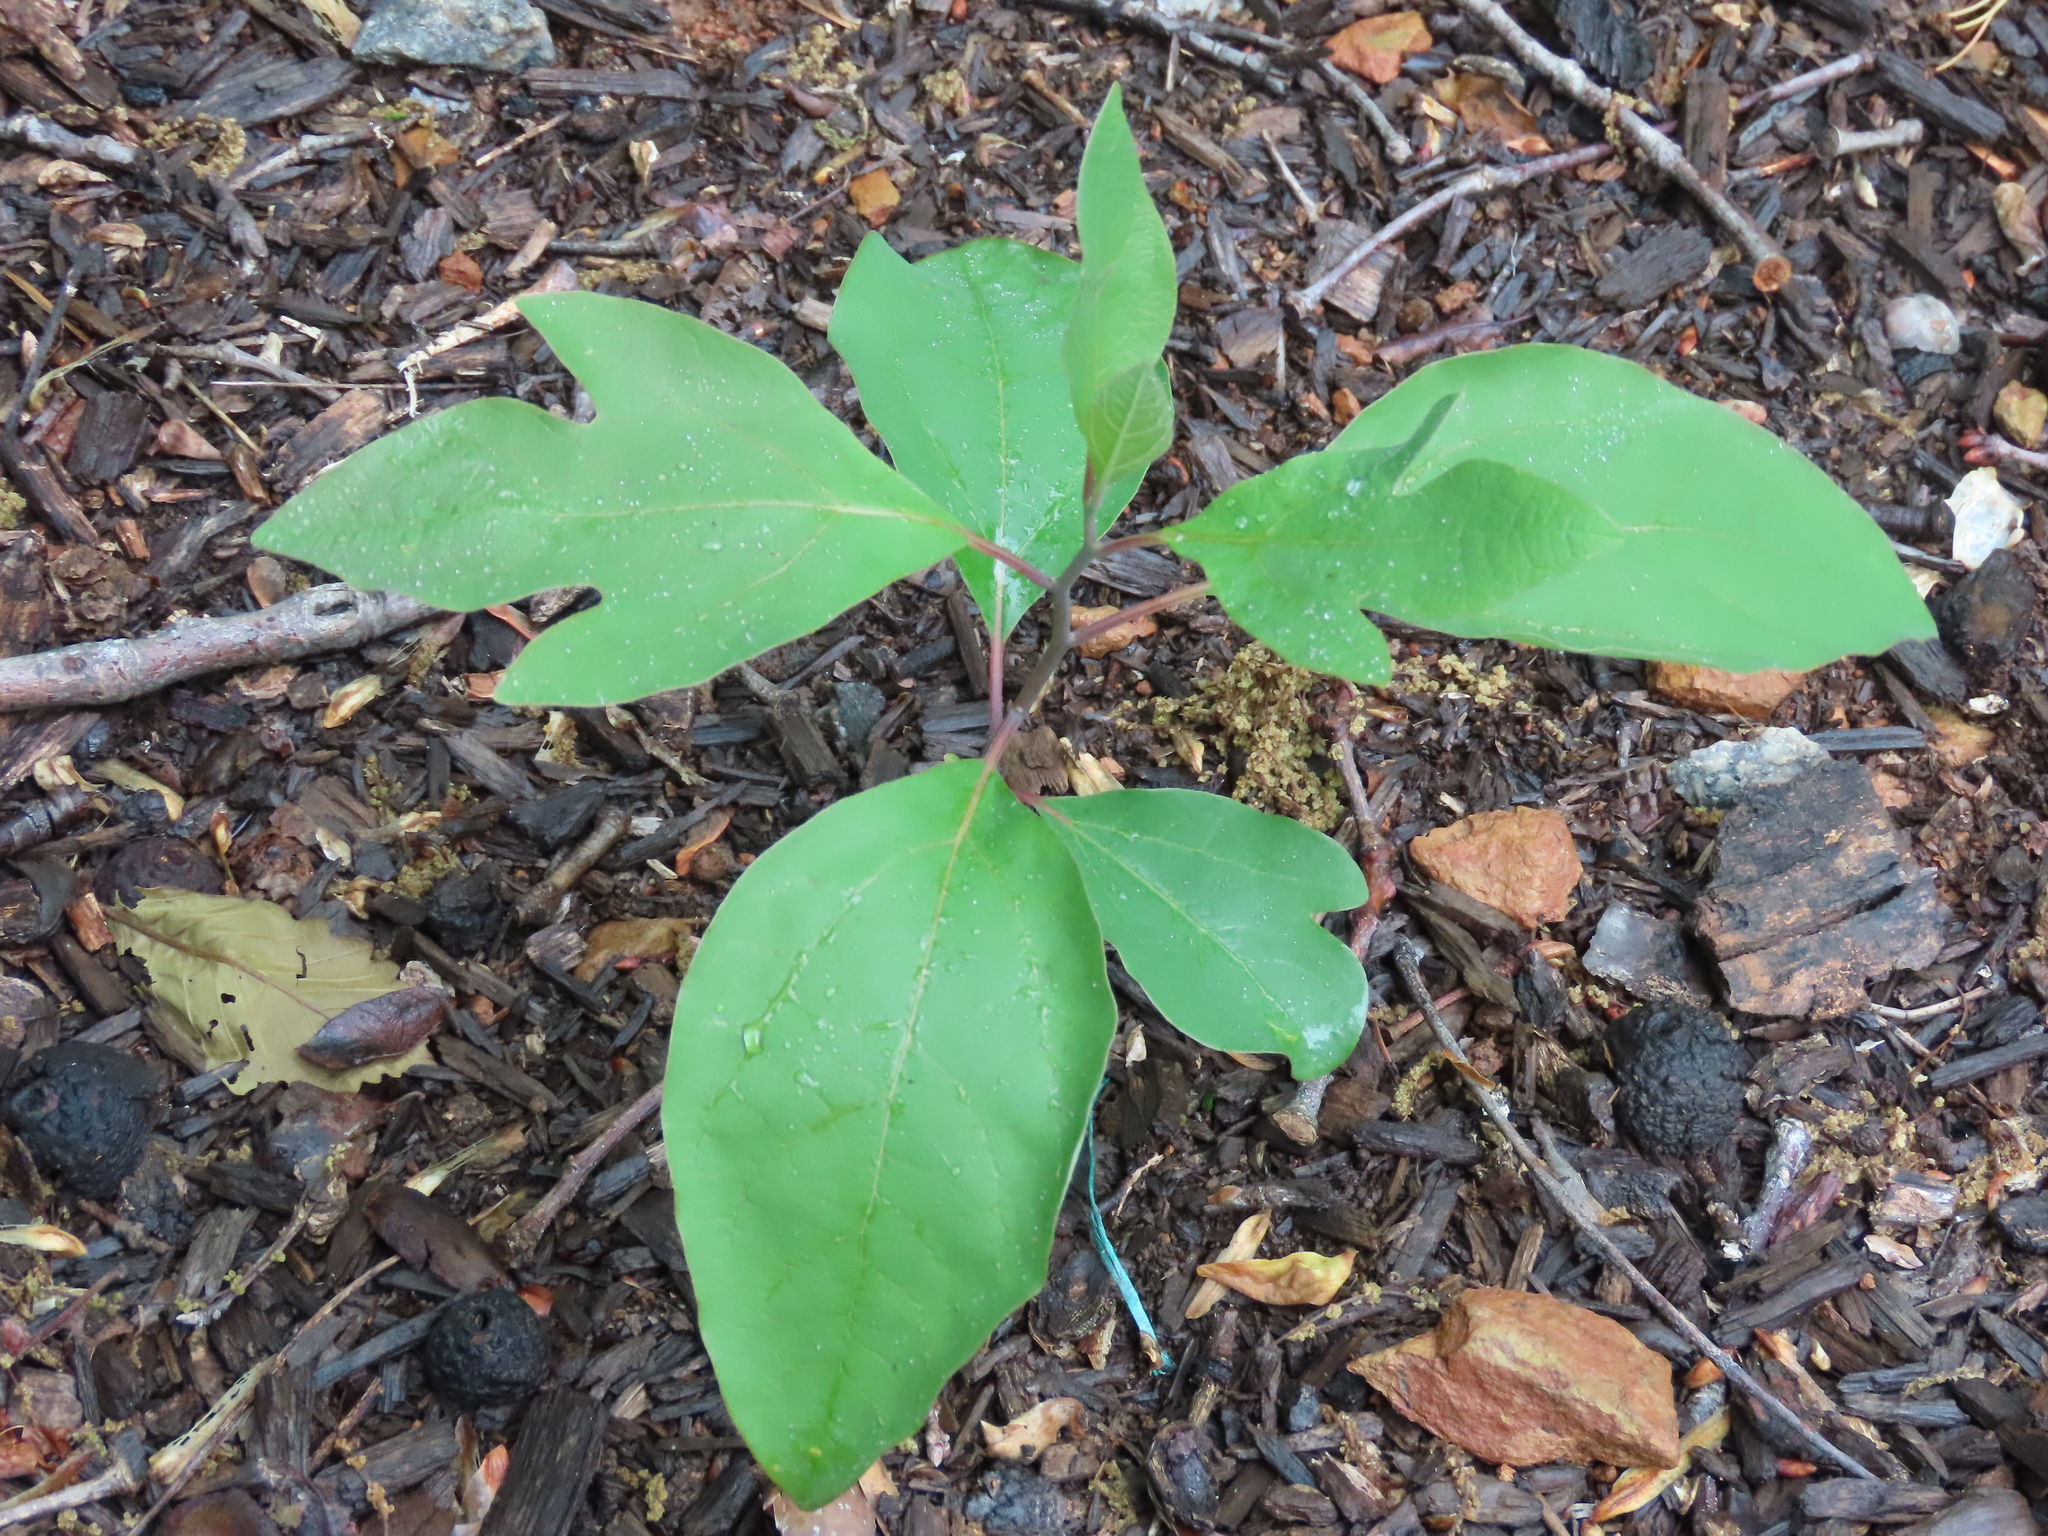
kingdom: Plantae
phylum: Tracheophyta
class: Magnoliopsida
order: Laurales
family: Lauraceae
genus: Sassafras
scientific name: Sassafras albidum
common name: Sassafras
